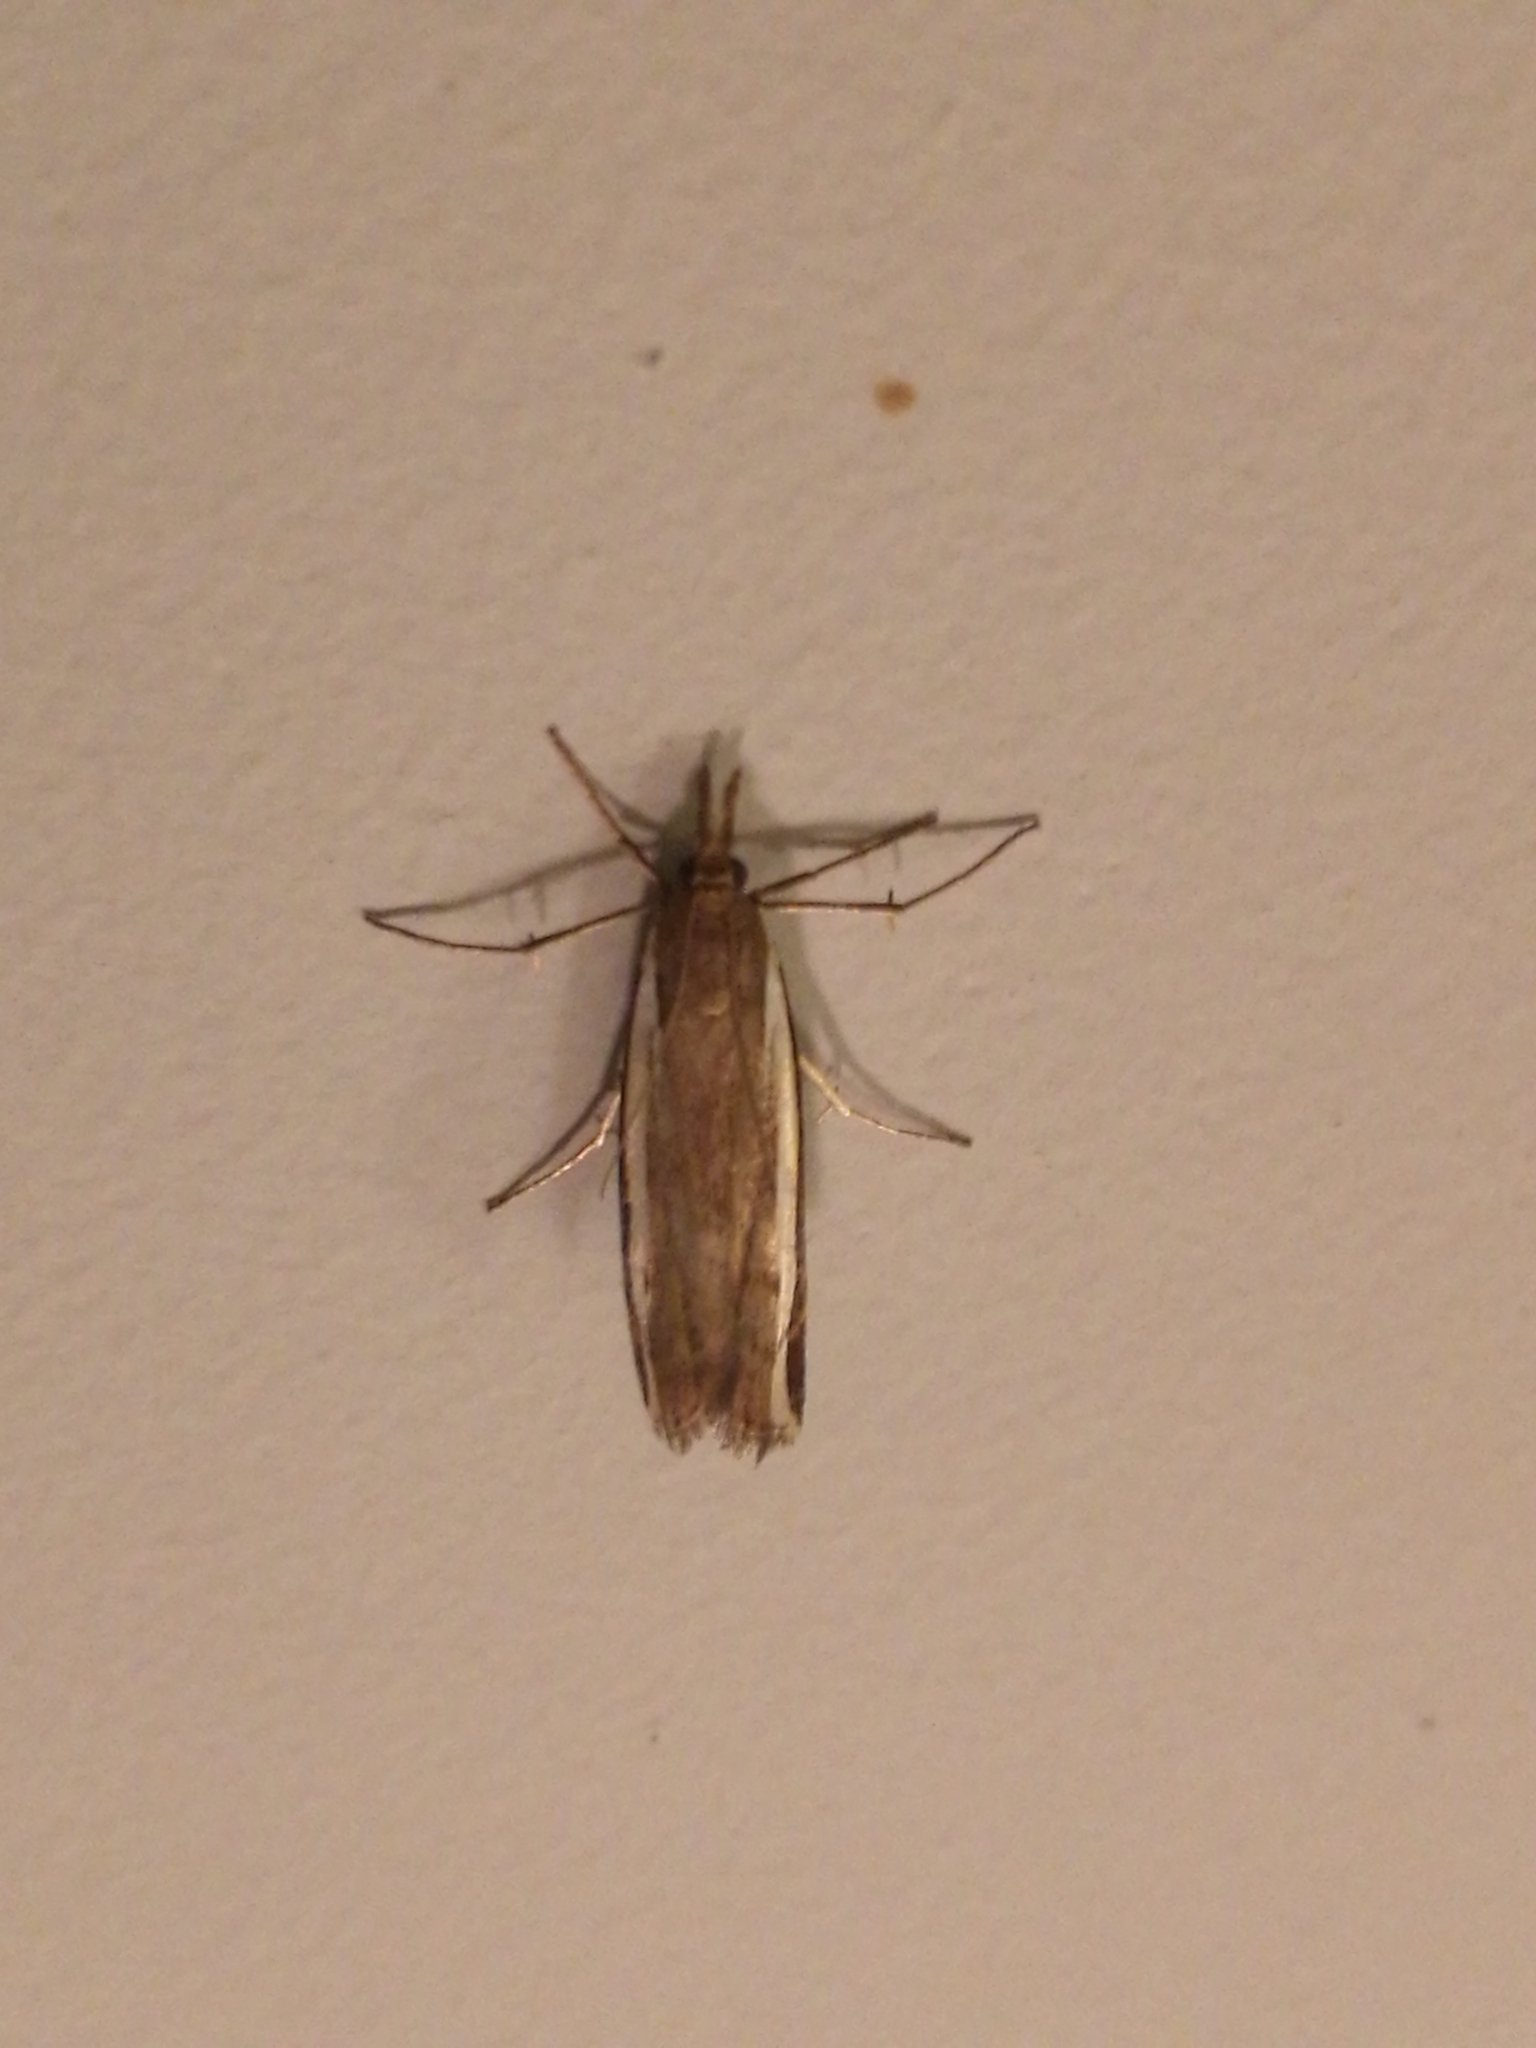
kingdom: Animalia
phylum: Arthropoda
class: Insecta
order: Lepidoptera
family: Crambidae
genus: Orocrambus
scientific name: Orocrambus flexuosellus
